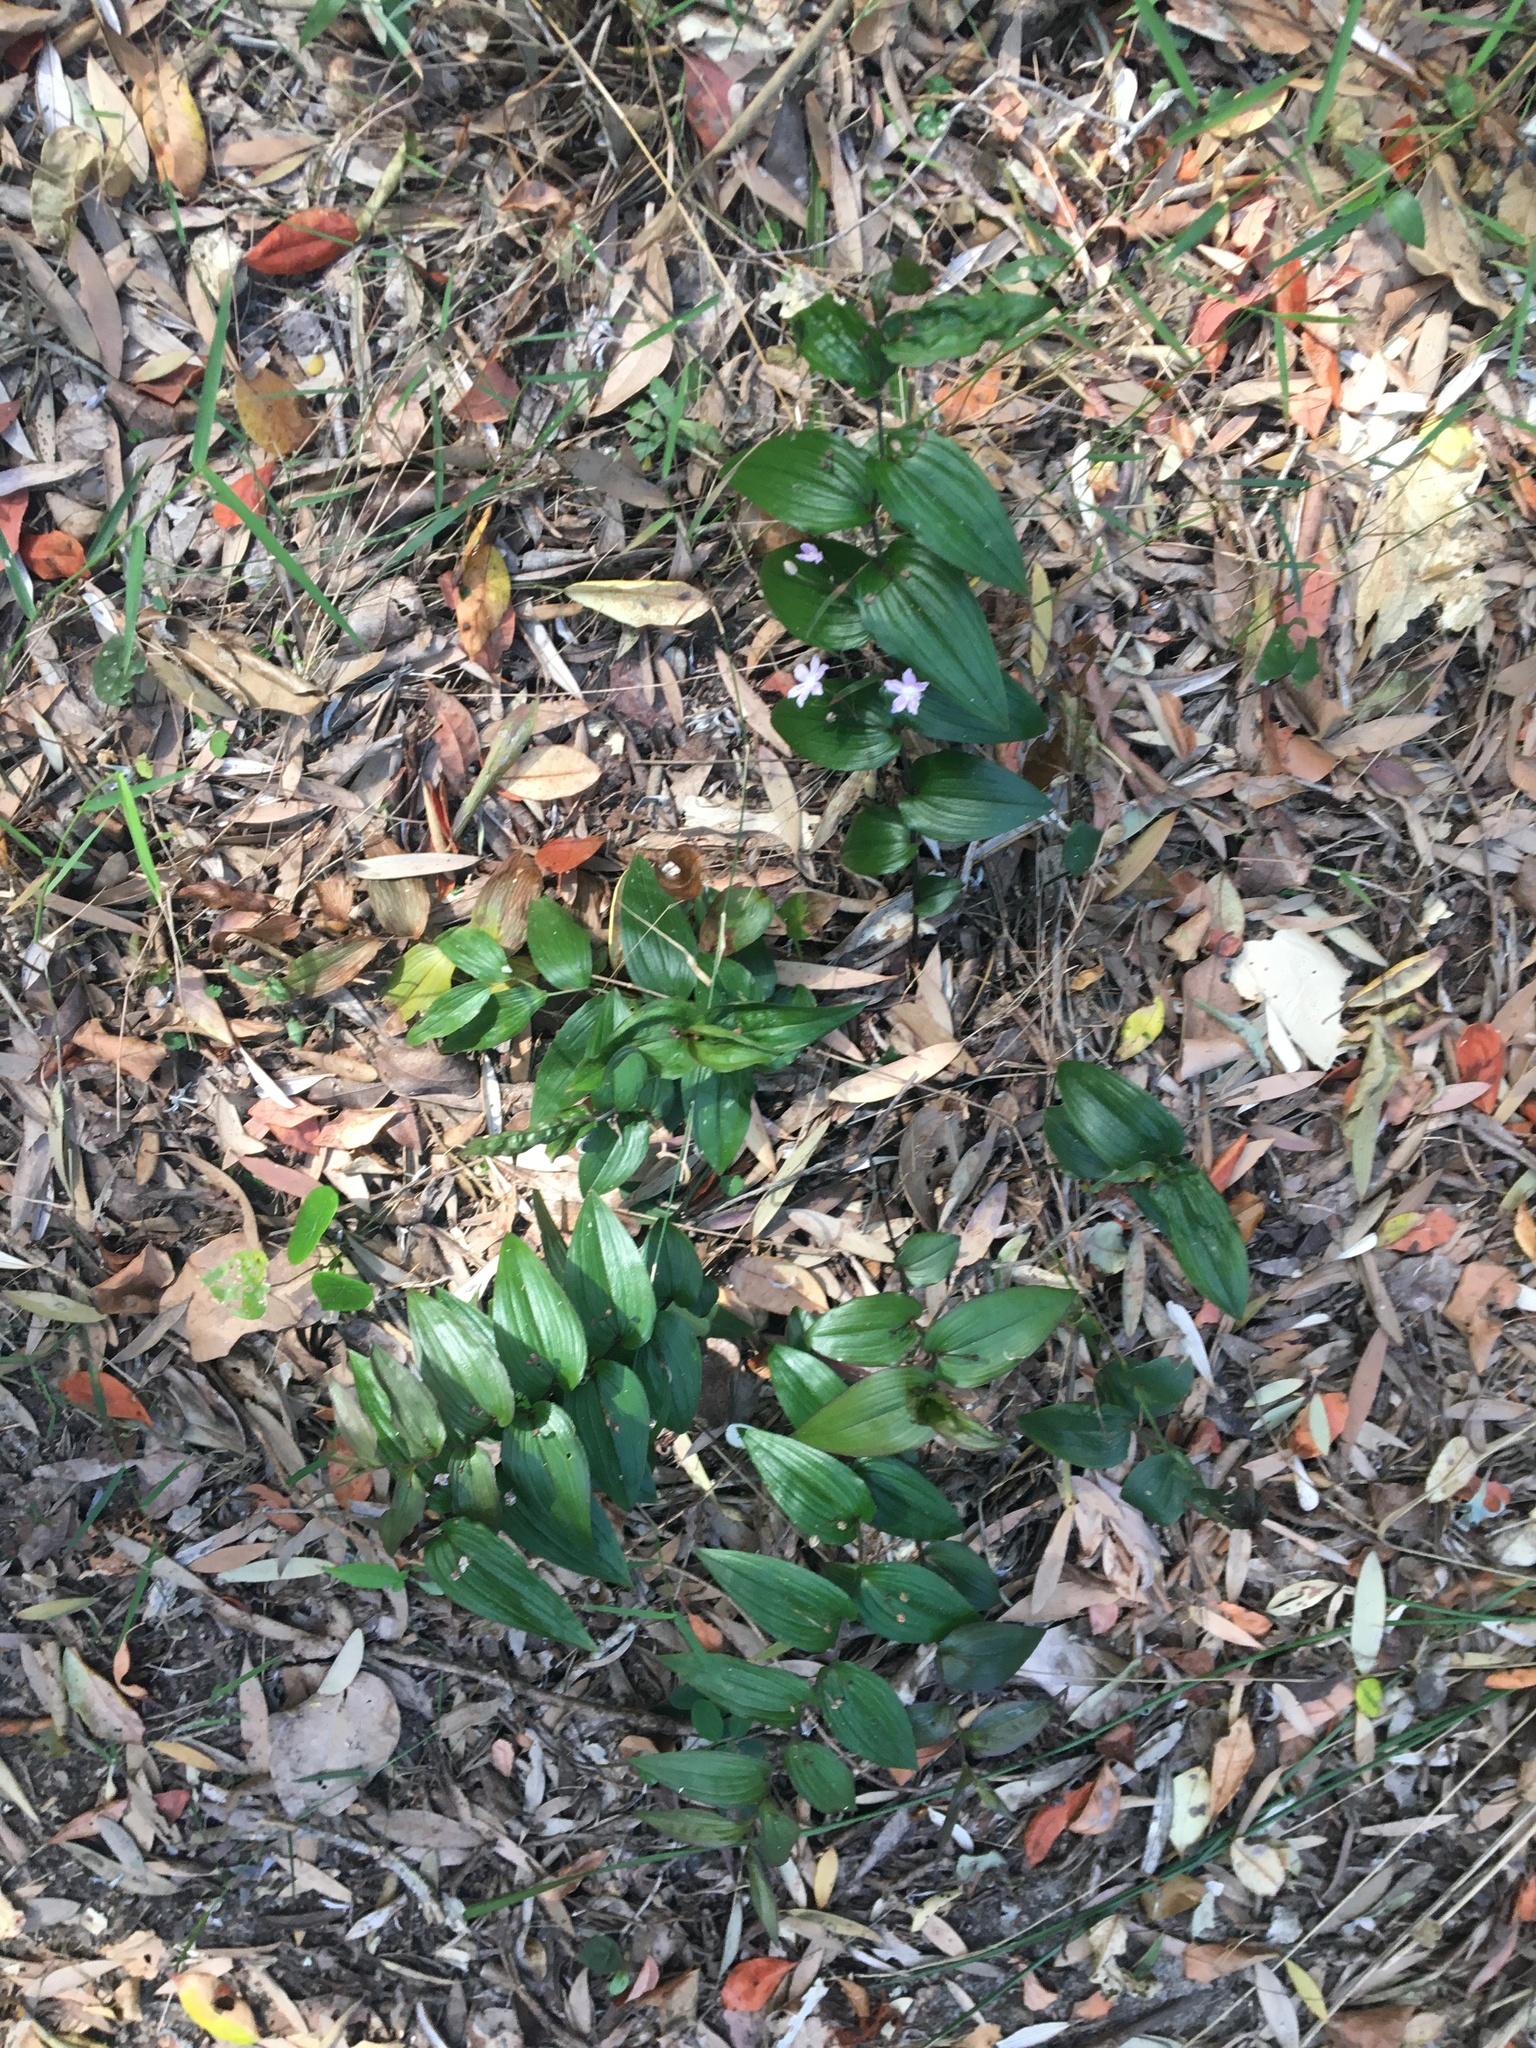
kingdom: Plantae
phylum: Tracheophyta
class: Liliopsida
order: Liliales
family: Colchicaceae
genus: Tripladenia
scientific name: Tripladenia cunninghamii
